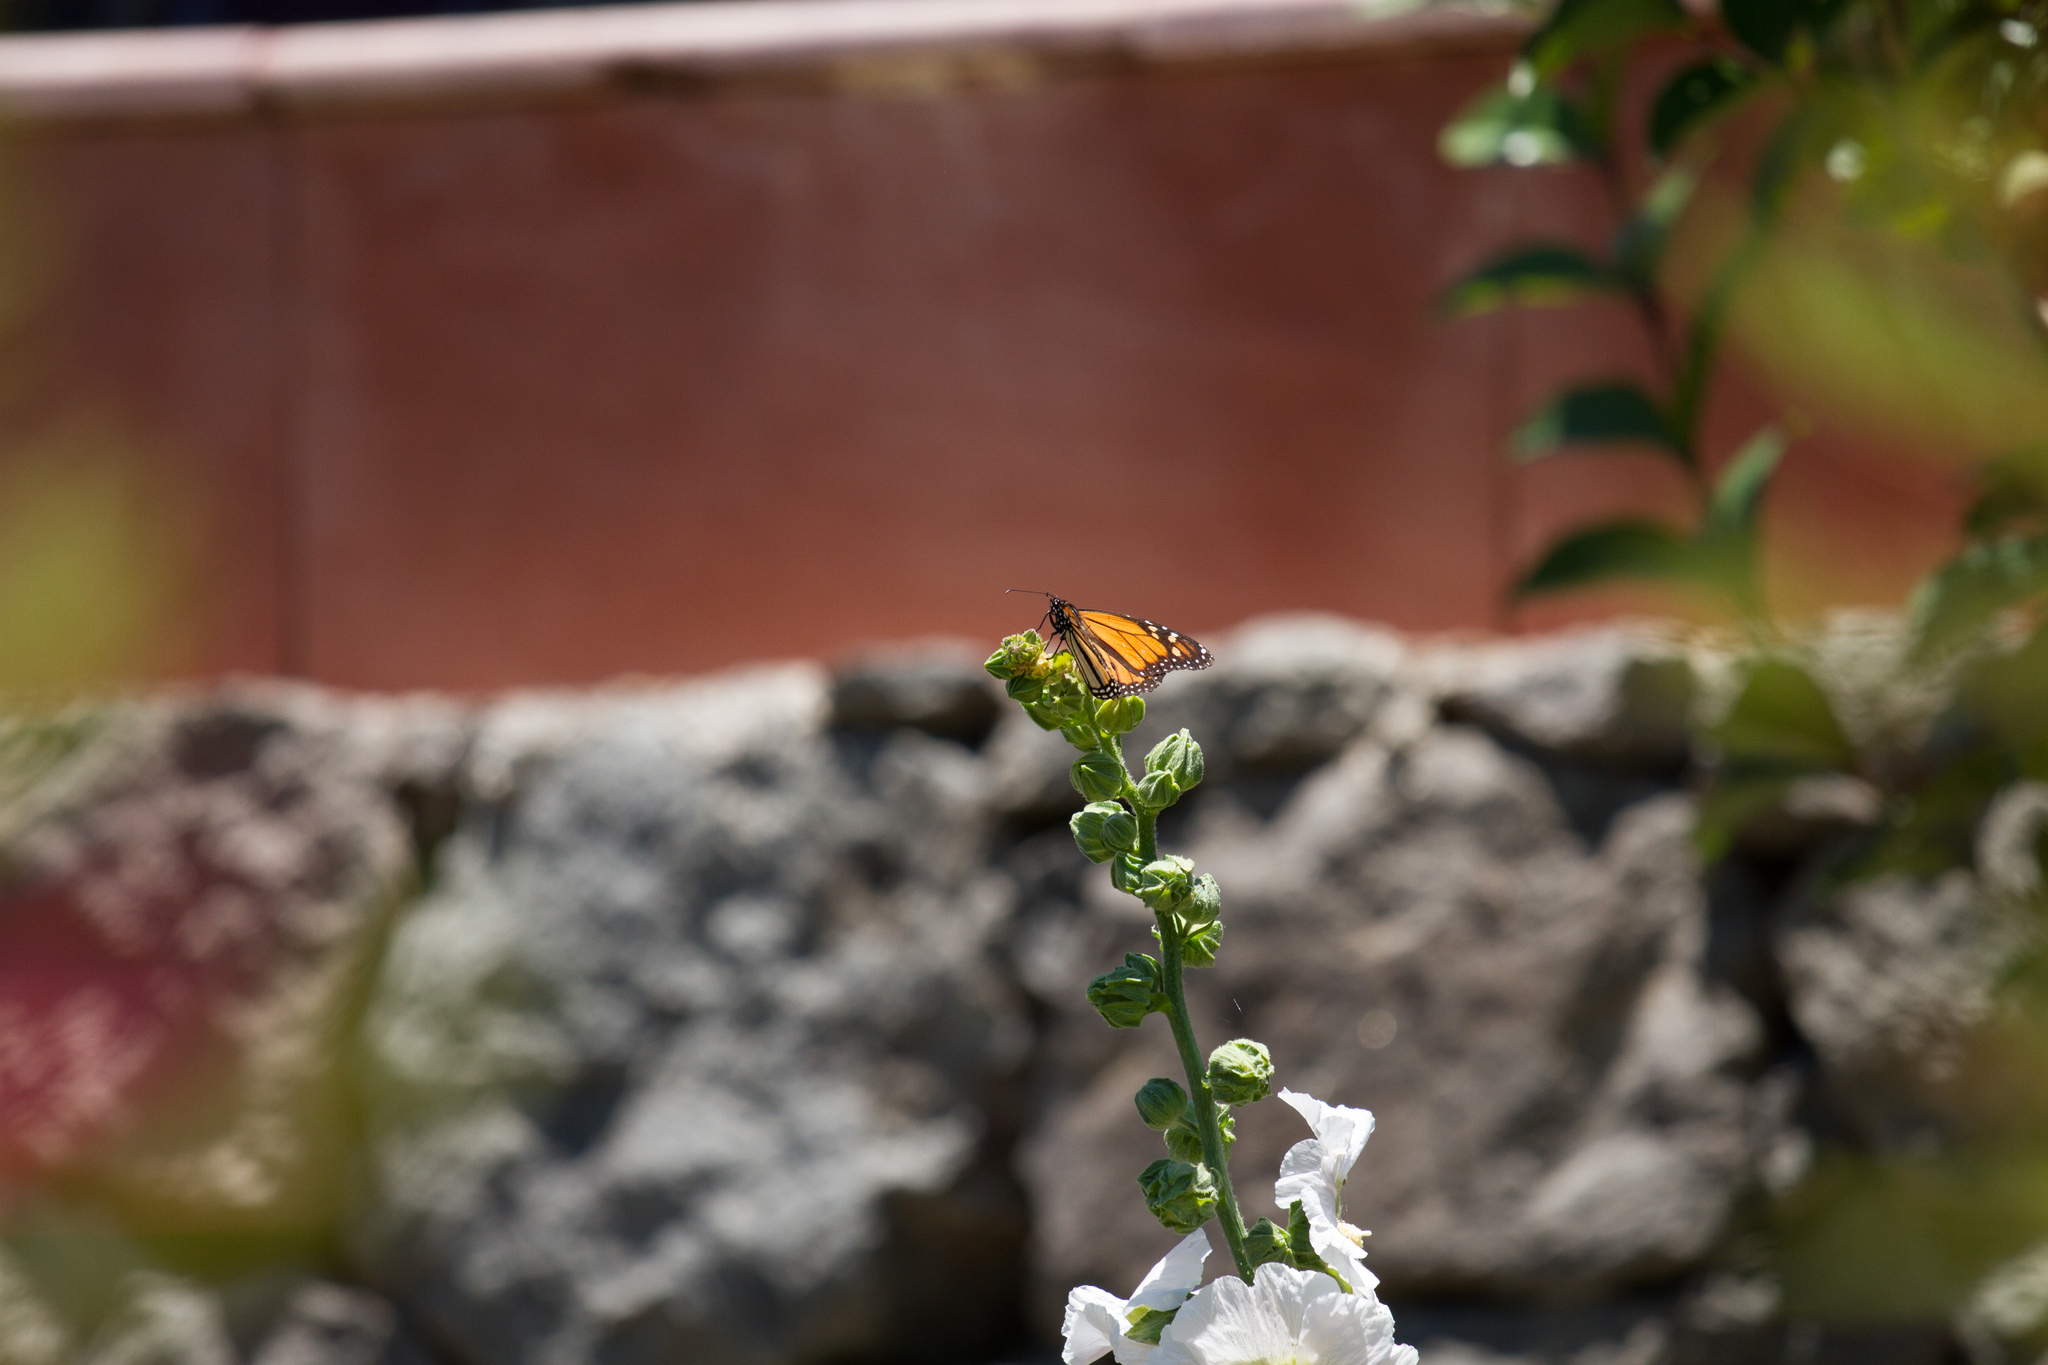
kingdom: Animalia
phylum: Arthropoda
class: Insecta
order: Lepidoptera
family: Nymphalidae
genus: Danaus
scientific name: Danaus plexippus
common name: Monarch
